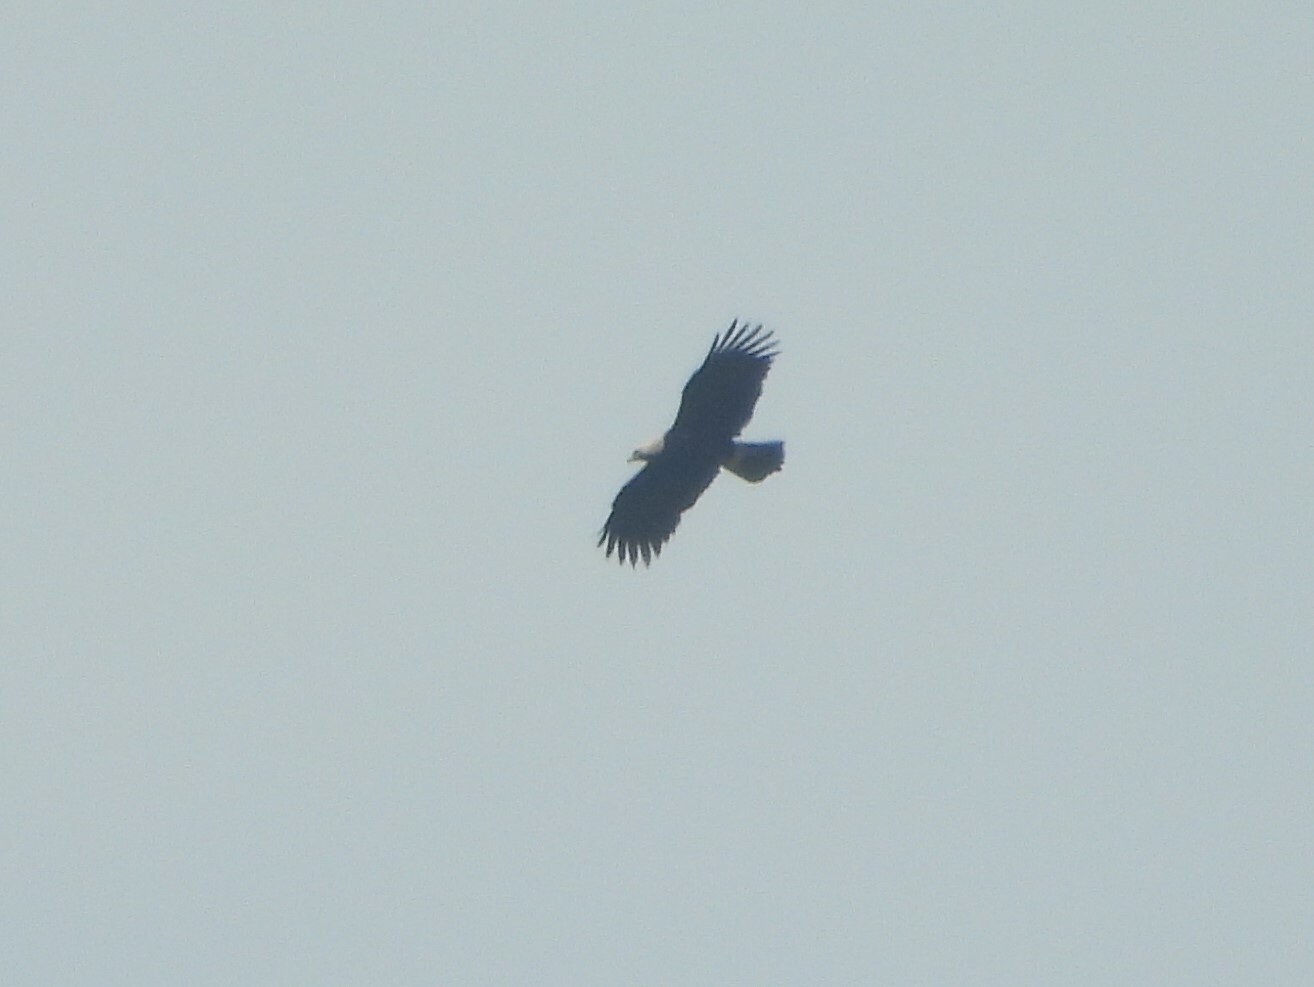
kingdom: Animalia
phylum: Chordata
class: Aves
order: Accipitriformes
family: Accipitridae
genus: Aquila
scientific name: Aquila heliaca
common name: Eastern imperial eagle
